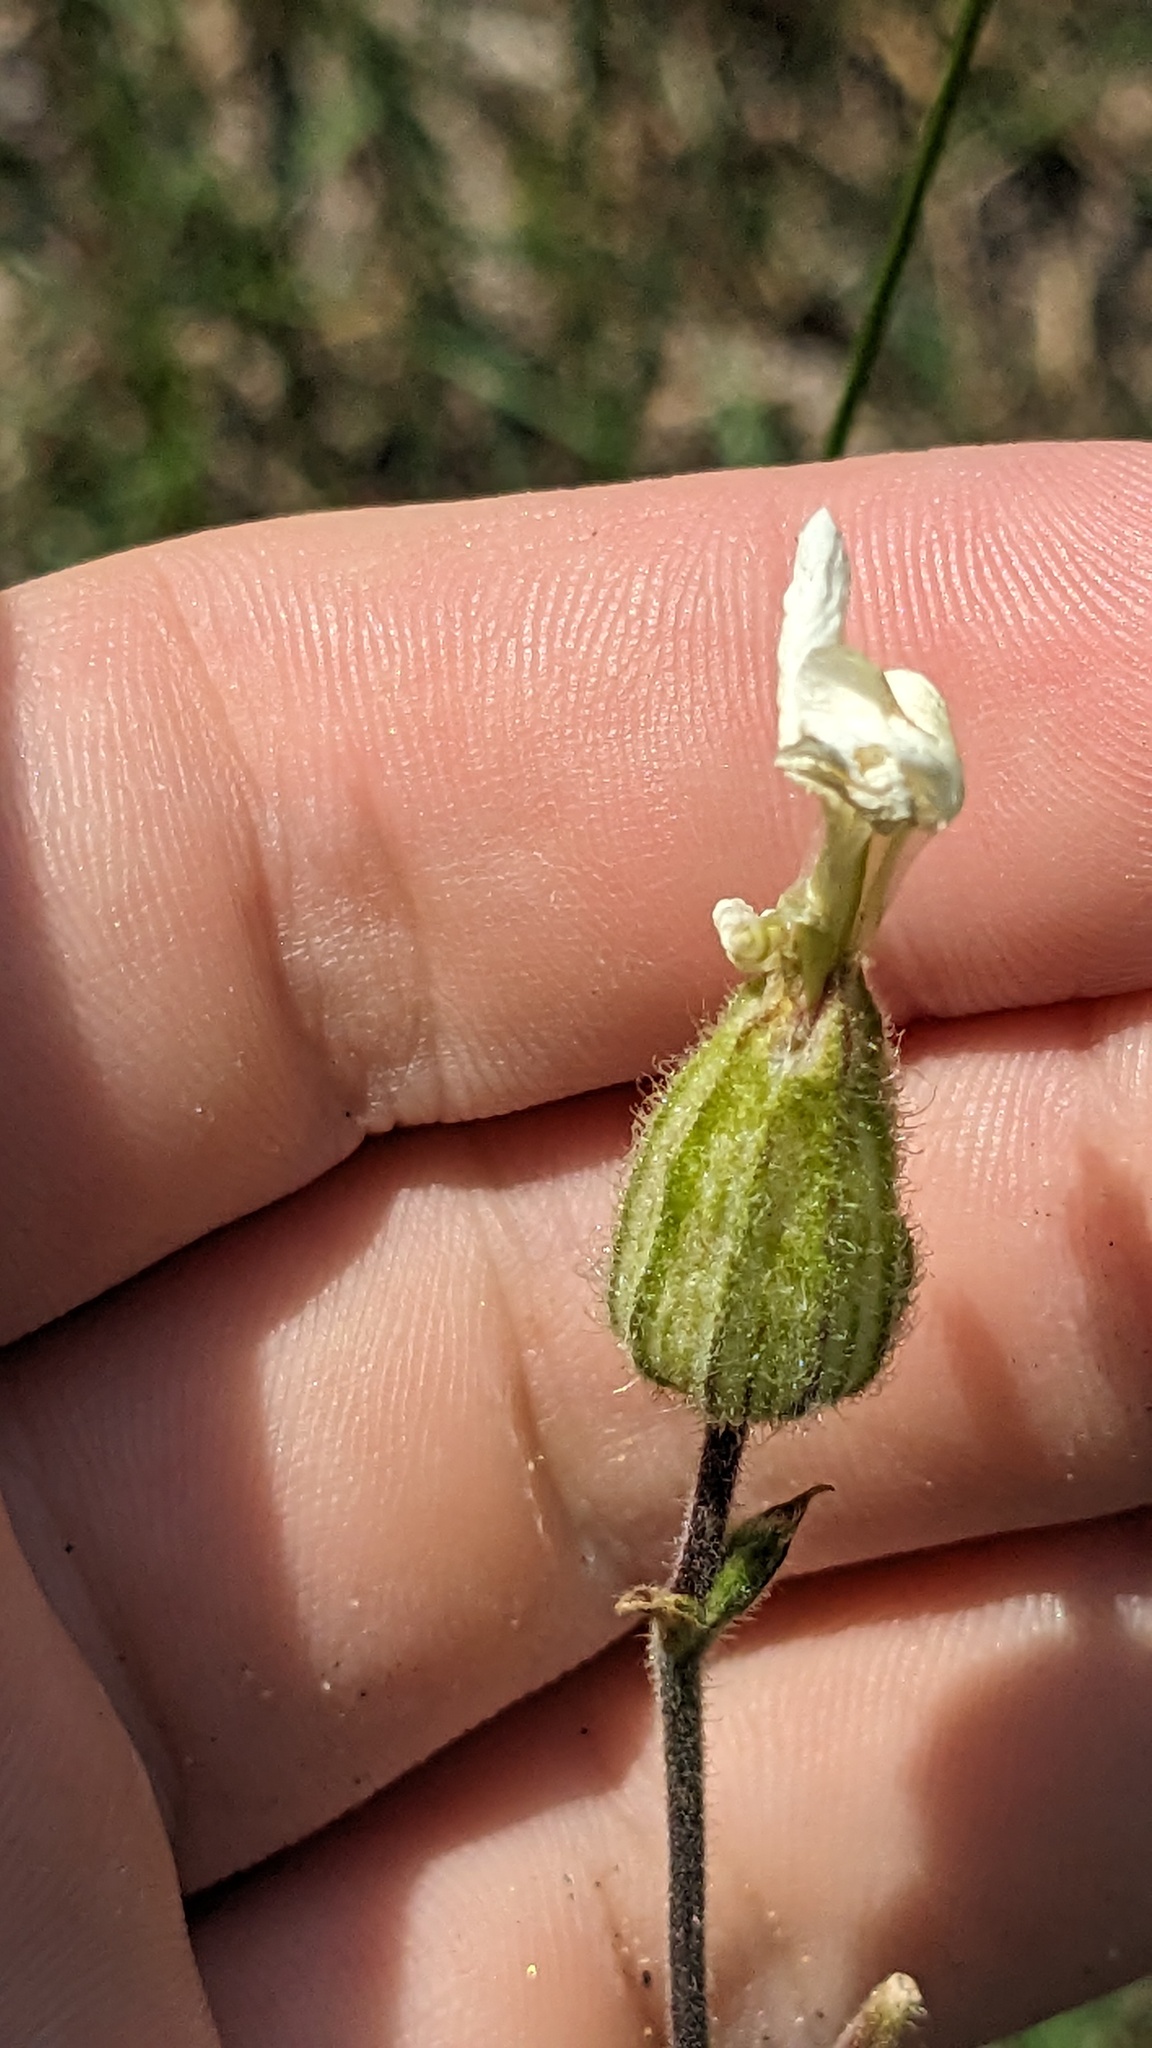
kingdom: Plantae
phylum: Tracheophyta
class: Magnoliopsida
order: Caryophyllales
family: Caryophyllaceae
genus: Silene
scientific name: Silene latifolia
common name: White campion
